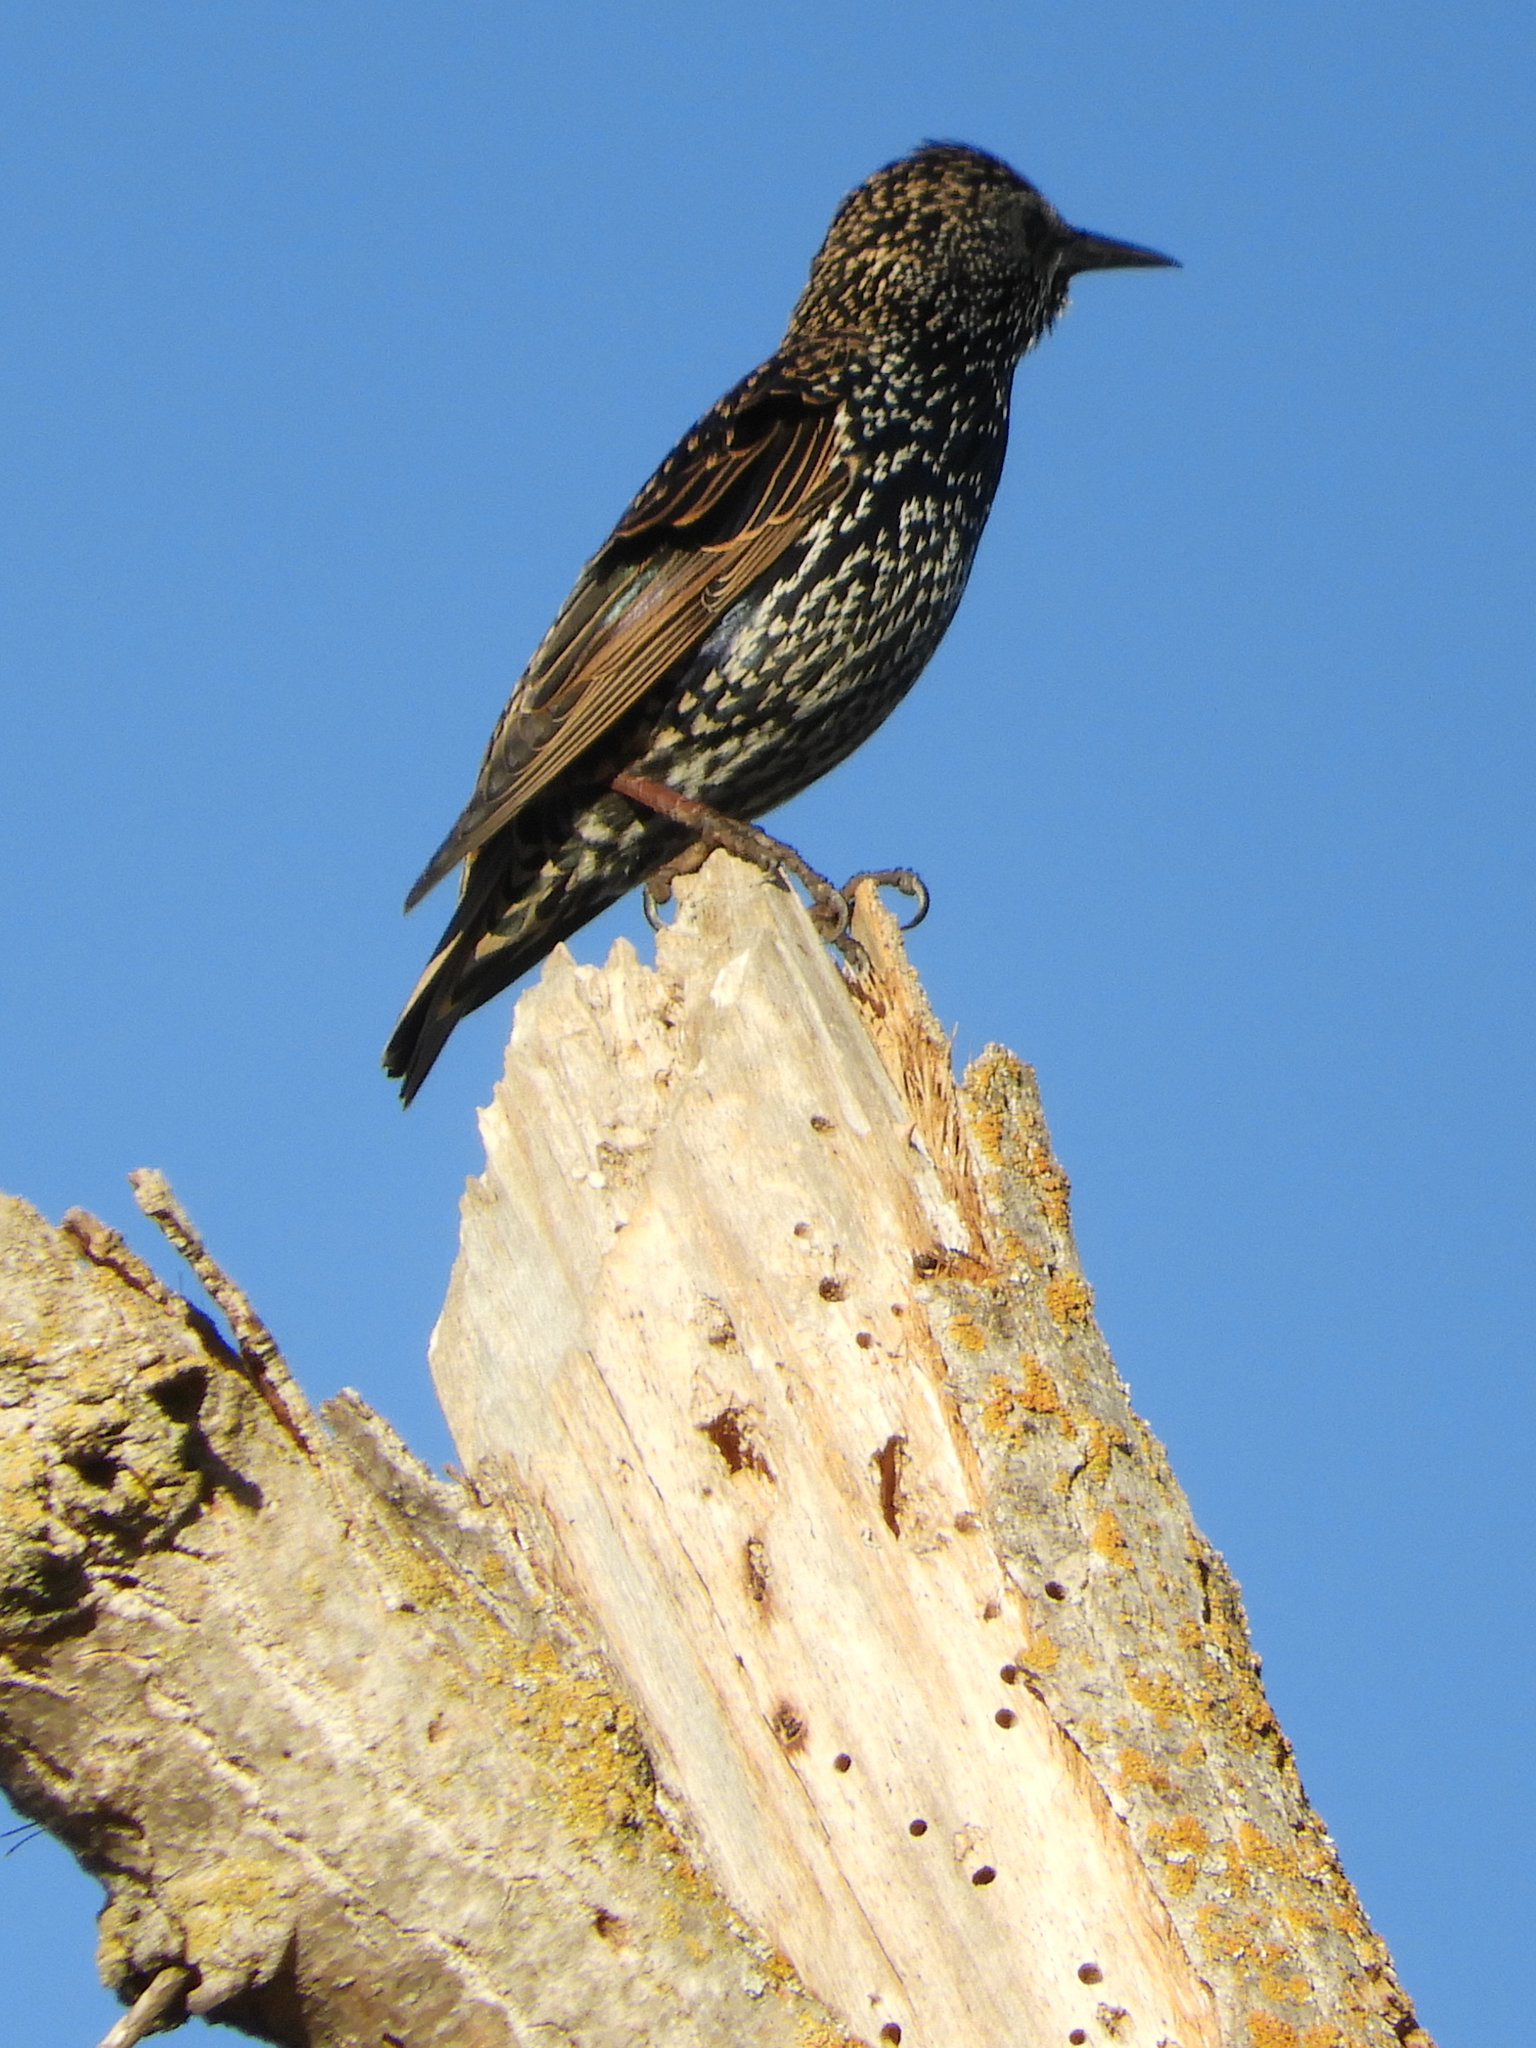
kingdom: Animalia
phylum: Chordata
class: Aves
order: Passeriformes
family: Sturnidae
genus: Sturnus
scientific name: Sturnus vulgaris
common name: Common starling
